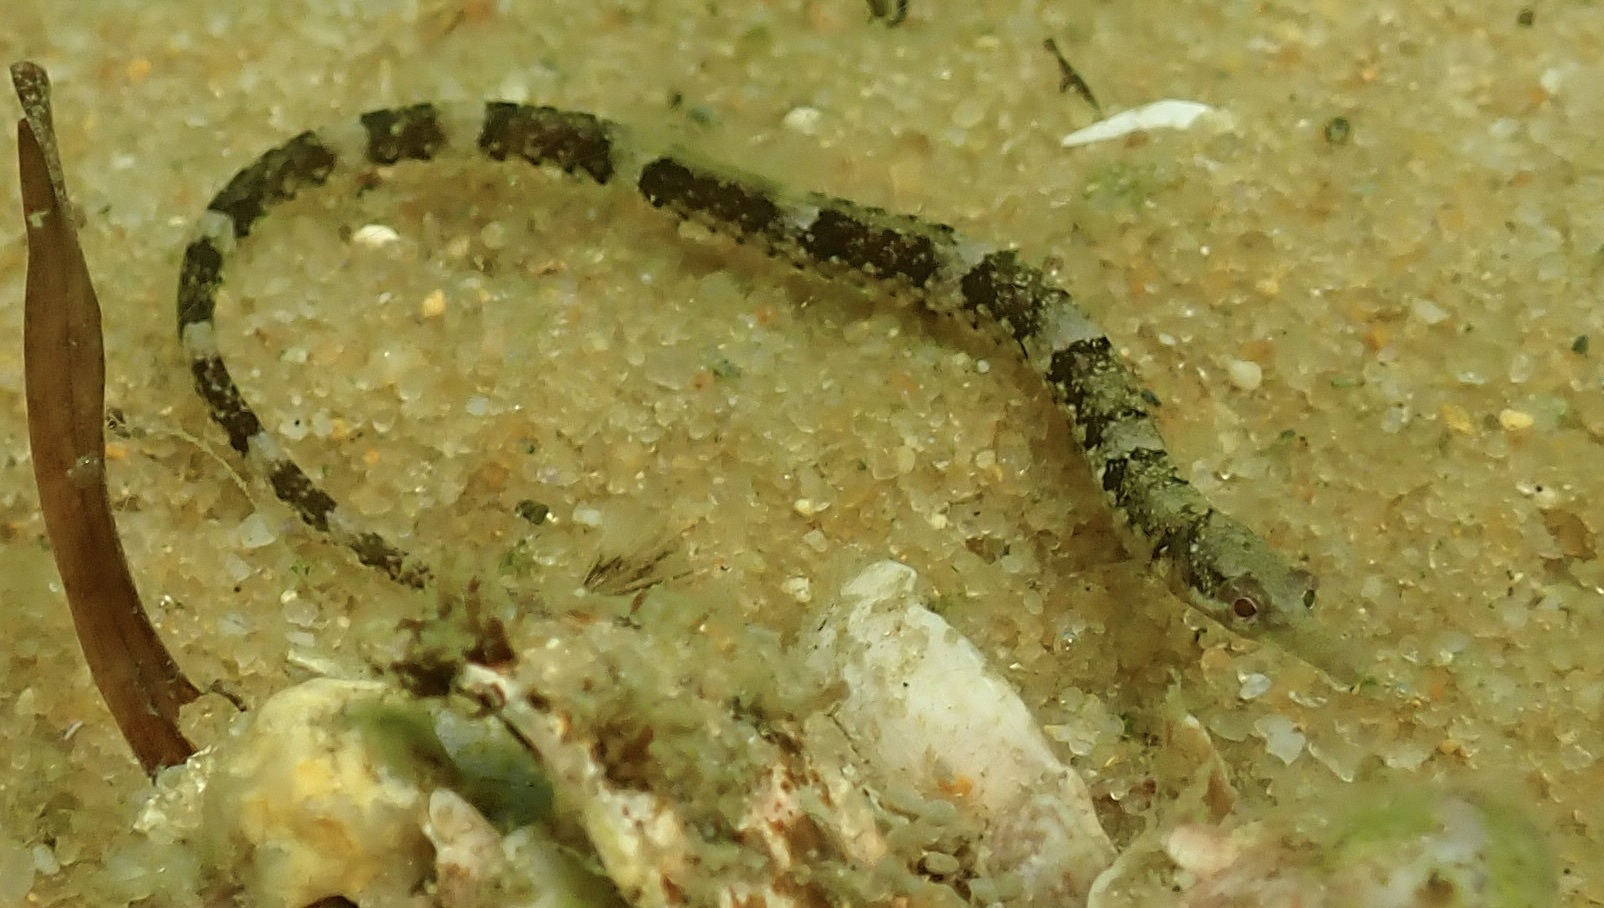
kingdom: Animalia
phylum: Chordata
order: Syngnathiformes
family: Syngnathidae
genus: Syngnathus
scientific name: Syngnathus fuscus
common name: Northern pipefish
